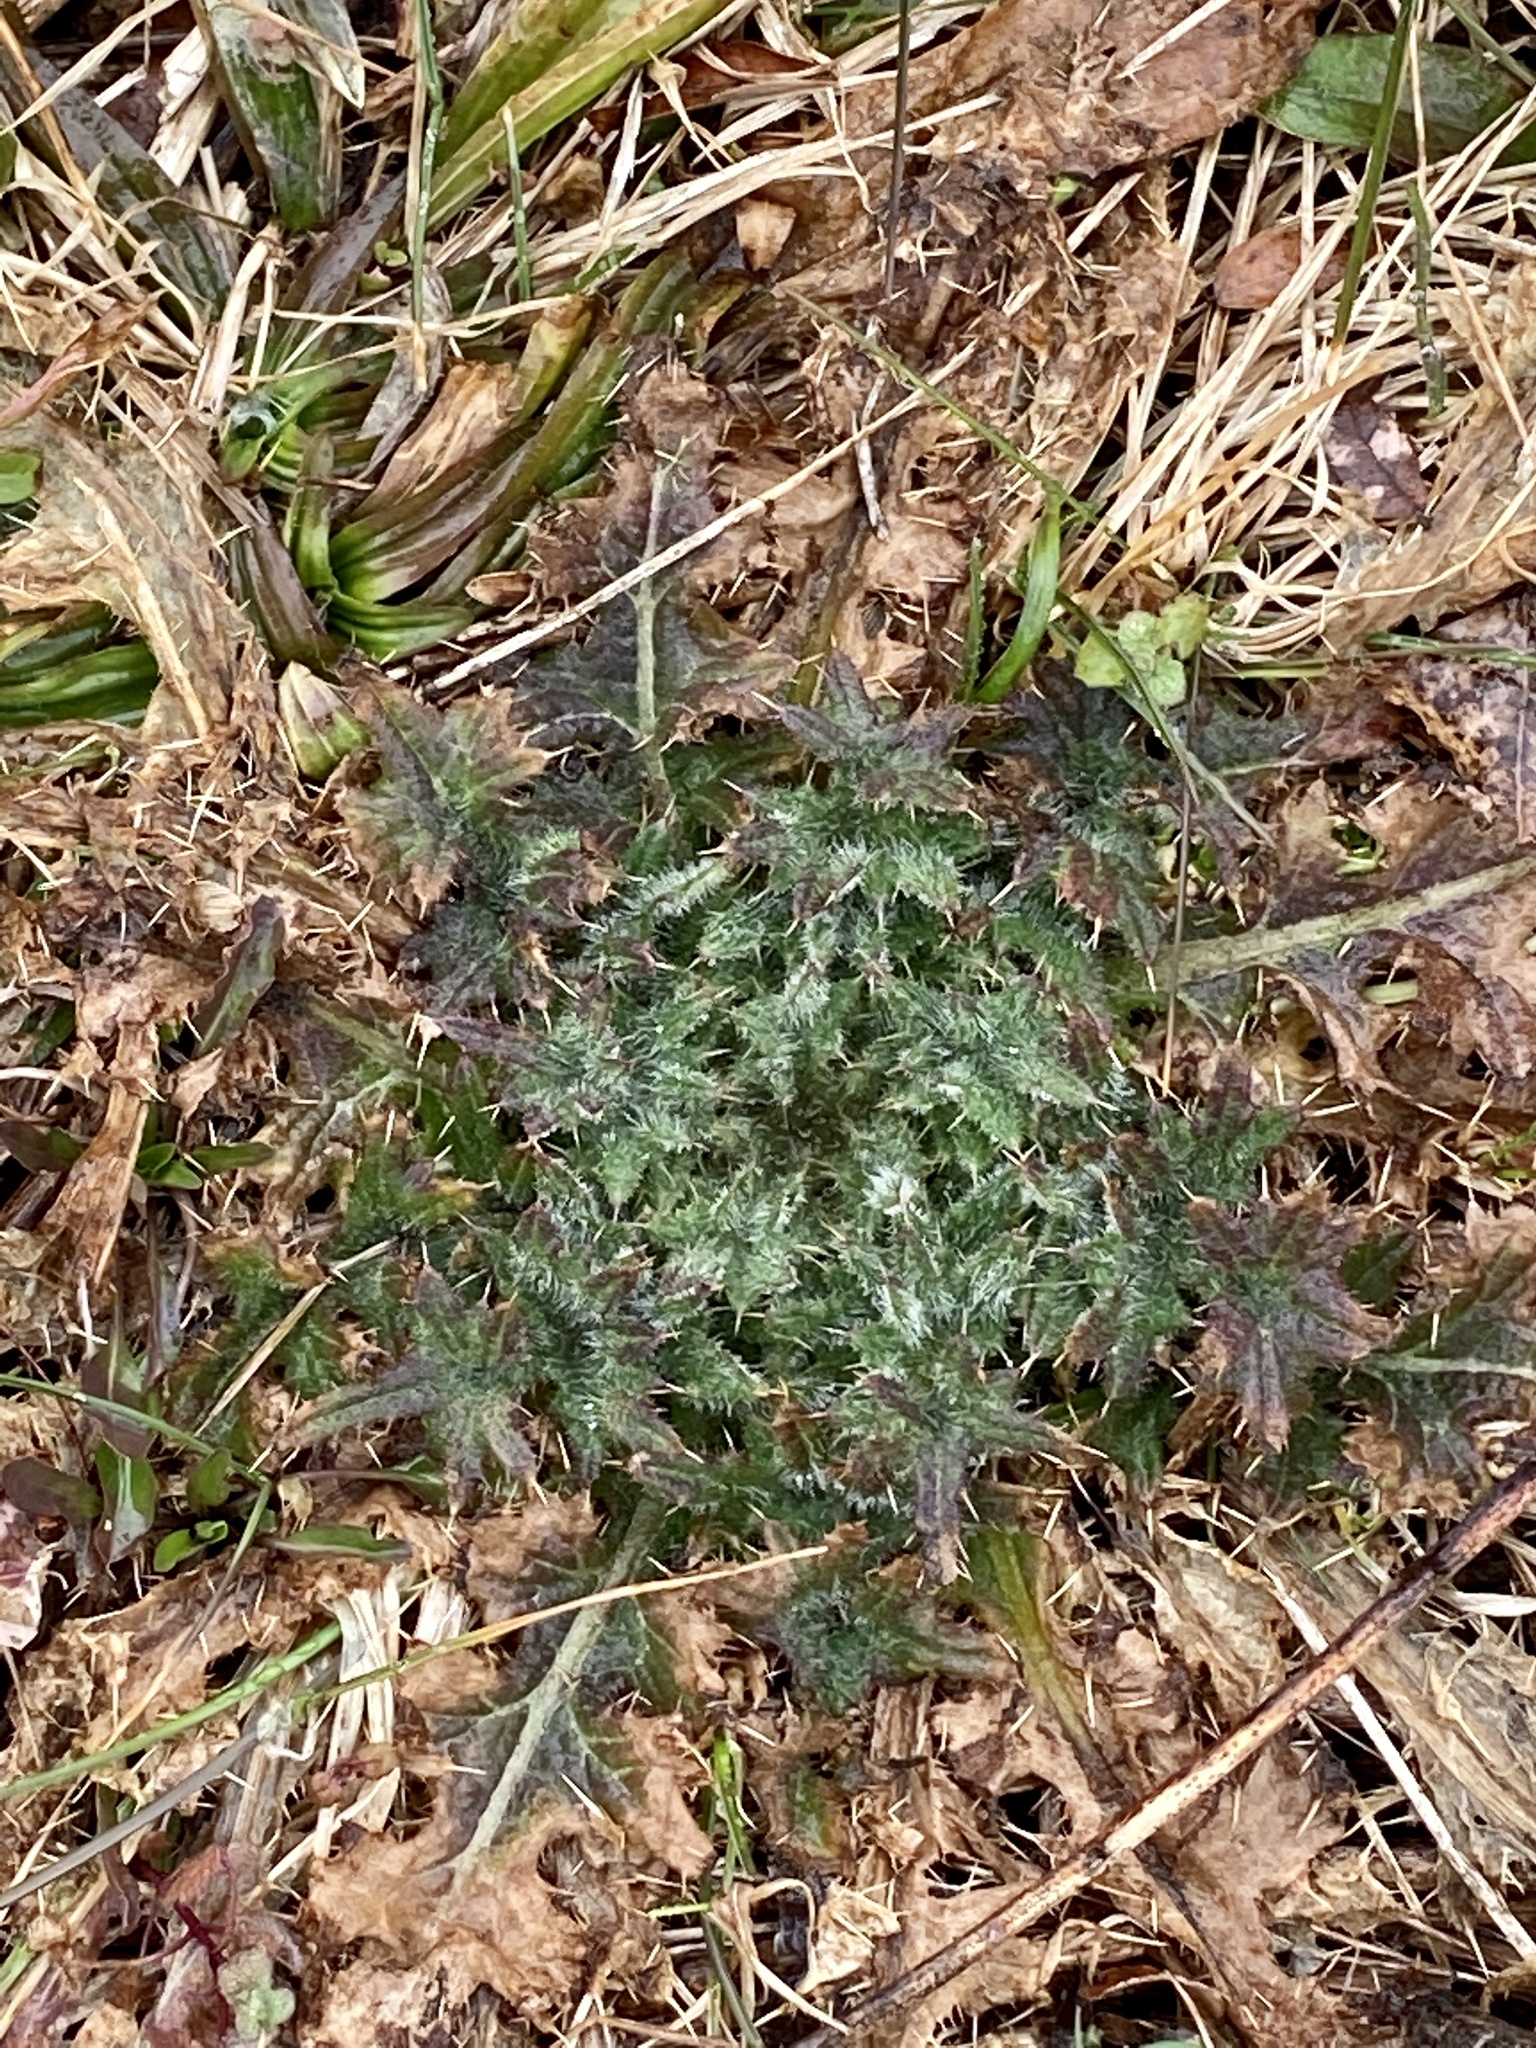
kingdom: Plantae
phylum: Tracheophyta
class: Magnoliopsida
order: Asterales
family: Asteraceae
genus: Cirsium
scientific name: Cirsium vulgare
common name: Bull thistle
